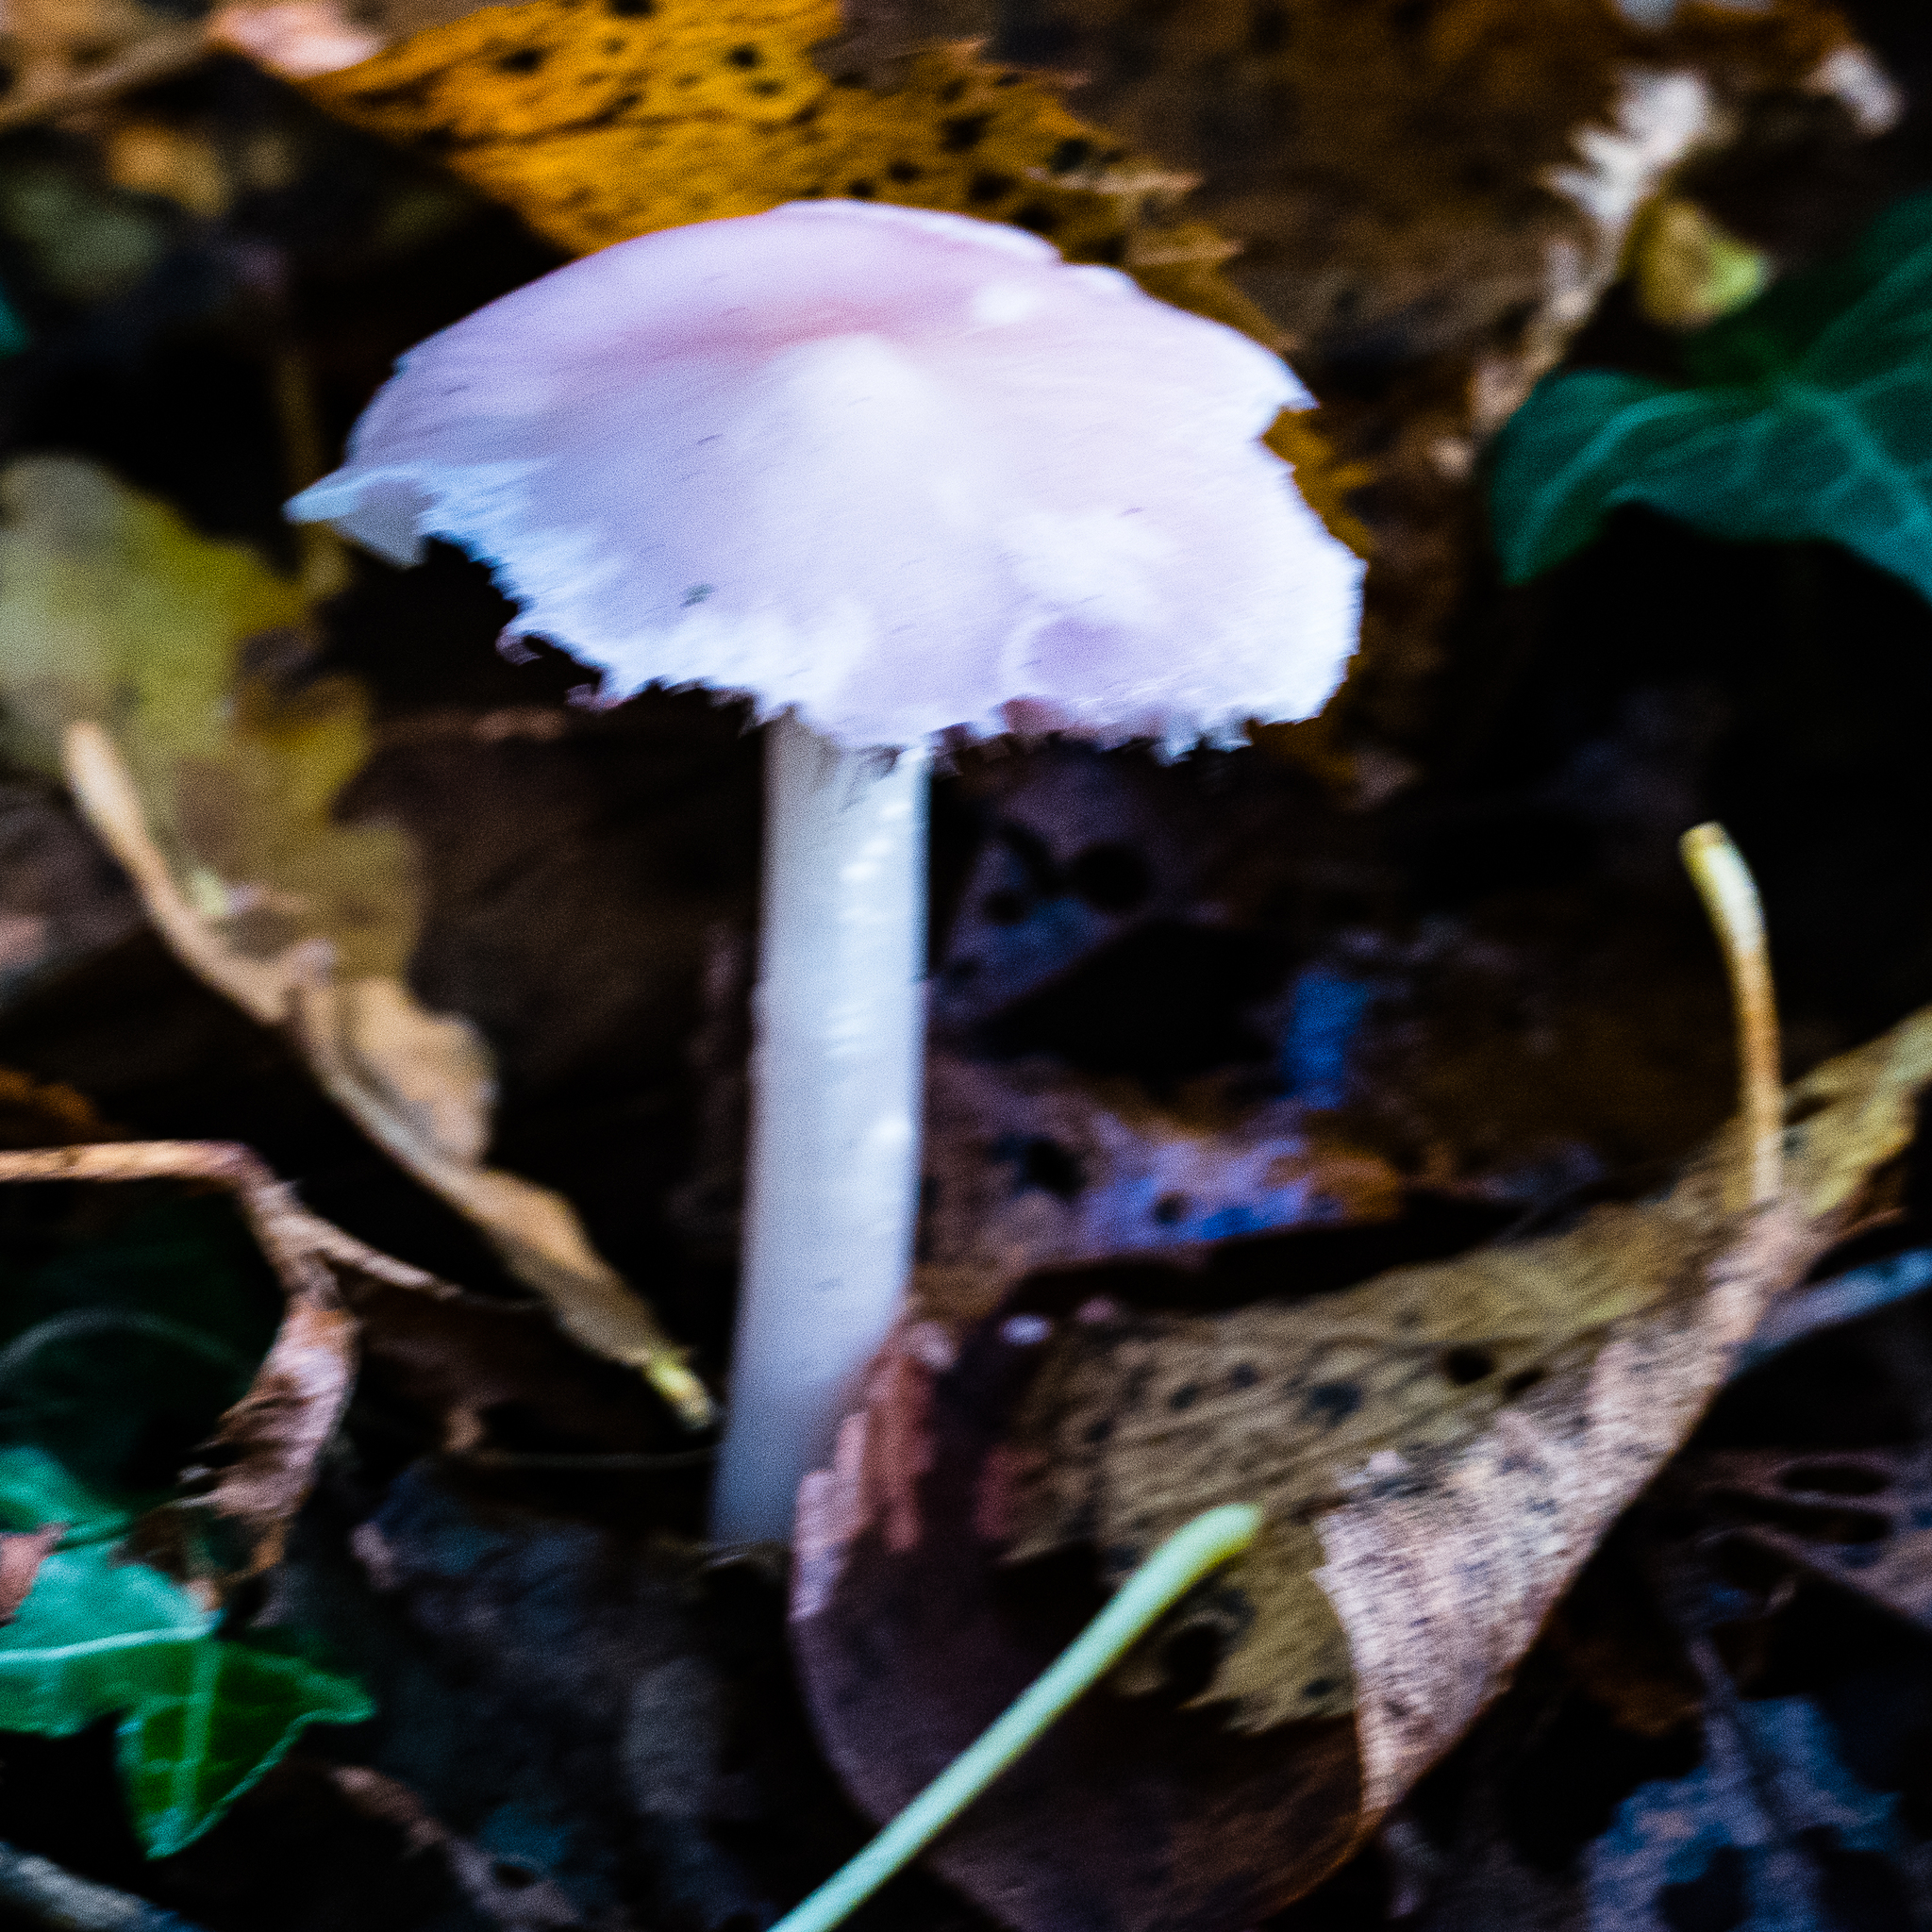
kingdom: Fungi
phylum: Basidiomycota
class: Agaricomycetes
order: Agaricales
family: Mycenaceae
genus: Mycena
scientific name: Mycena rosea
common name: Rosy bonnet
